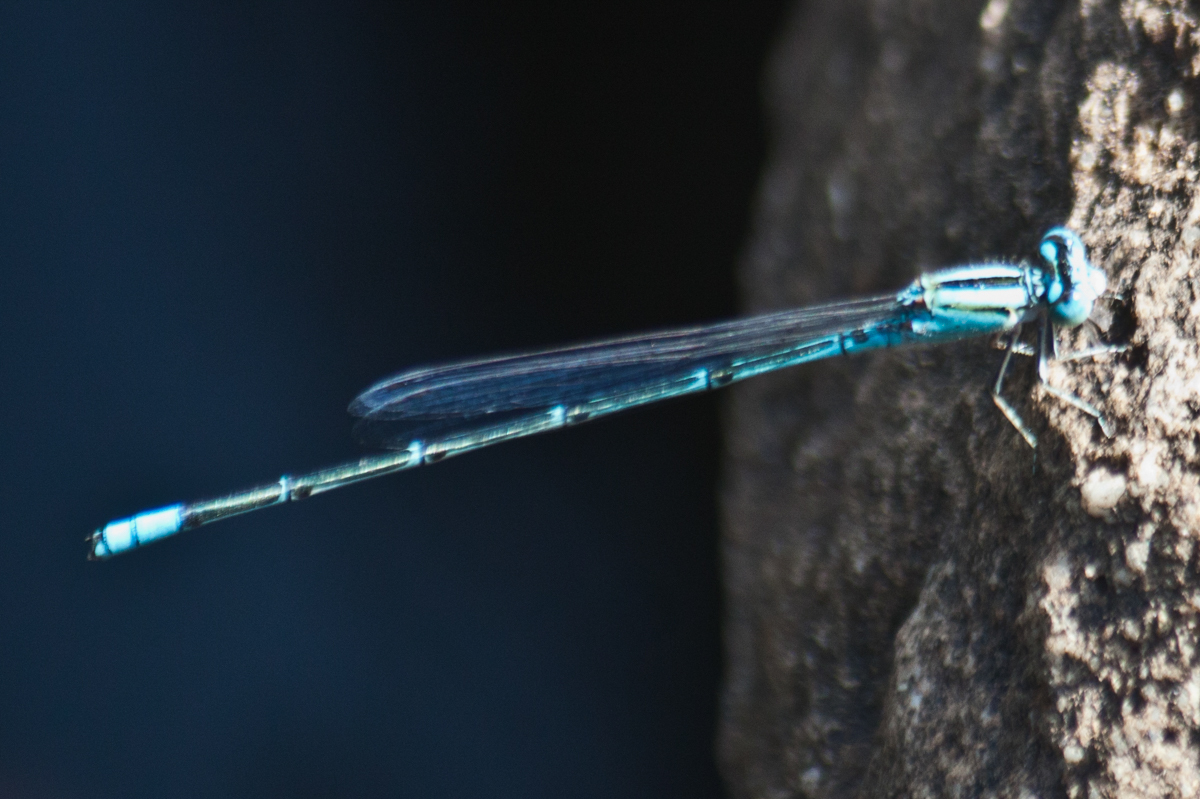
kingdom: Animalia
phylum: Arthropoda
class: Insecta
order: Odonata
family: Coenagrionidae
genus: Pseudagrion
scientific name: Pseudagrion australasiae
